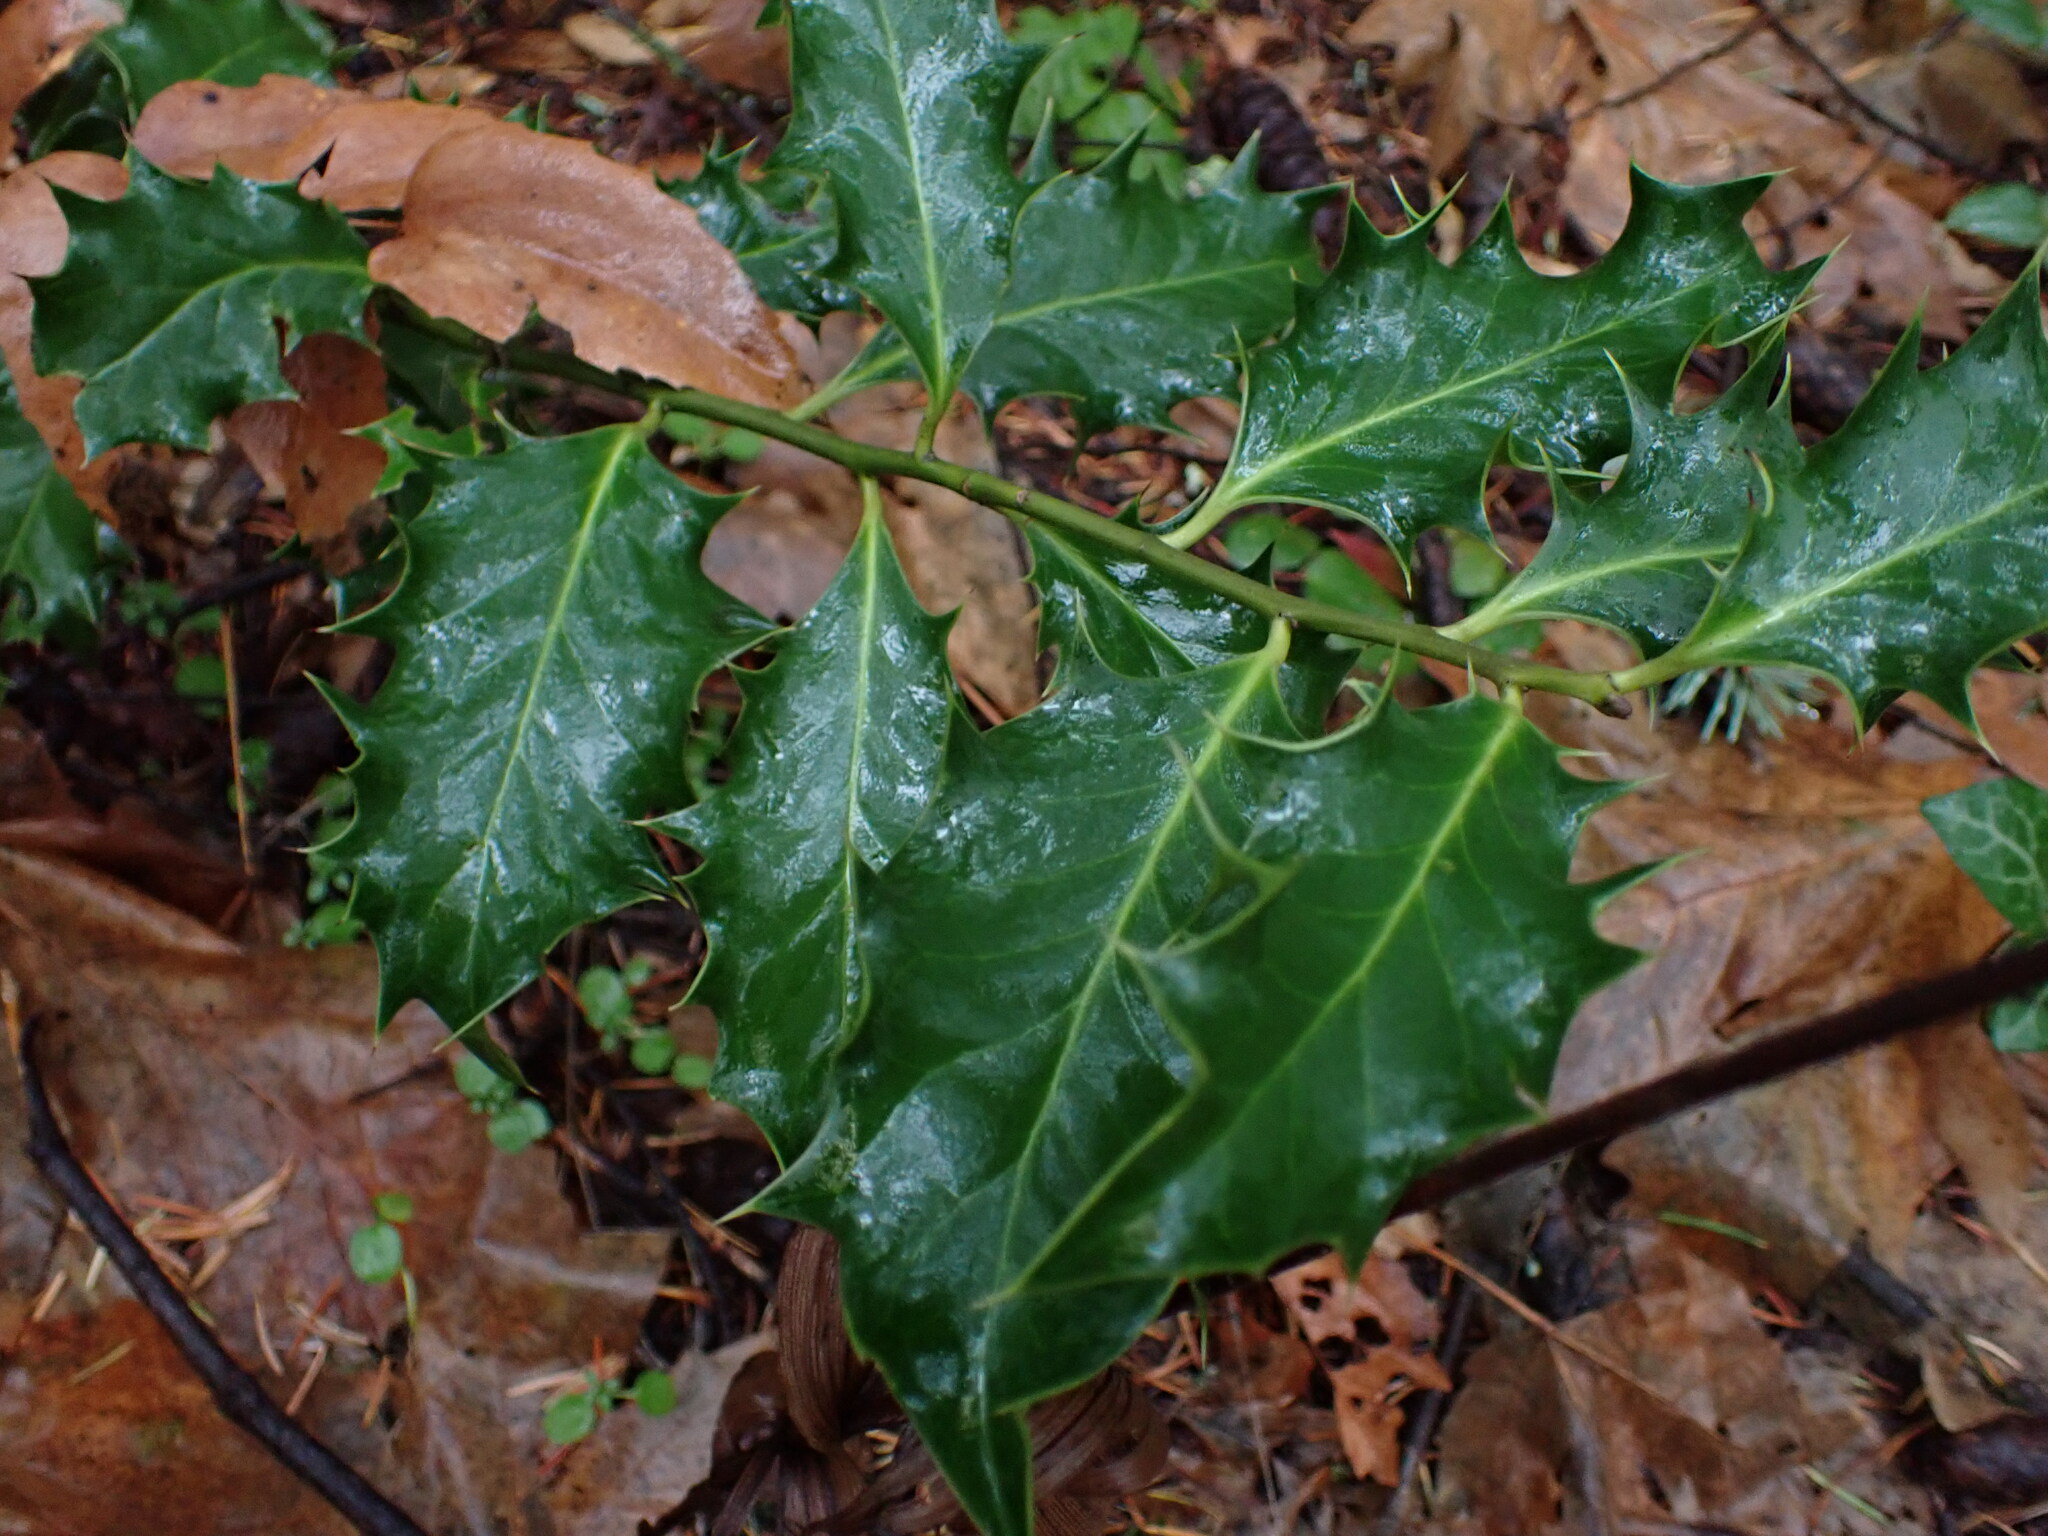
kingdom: Plantae
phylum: Tracheophyta
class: Magnoliopsida
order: Aquifoliales
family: Aquifoliaceae
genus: Ilex
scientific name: Ilex aquifolium
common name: English holly
